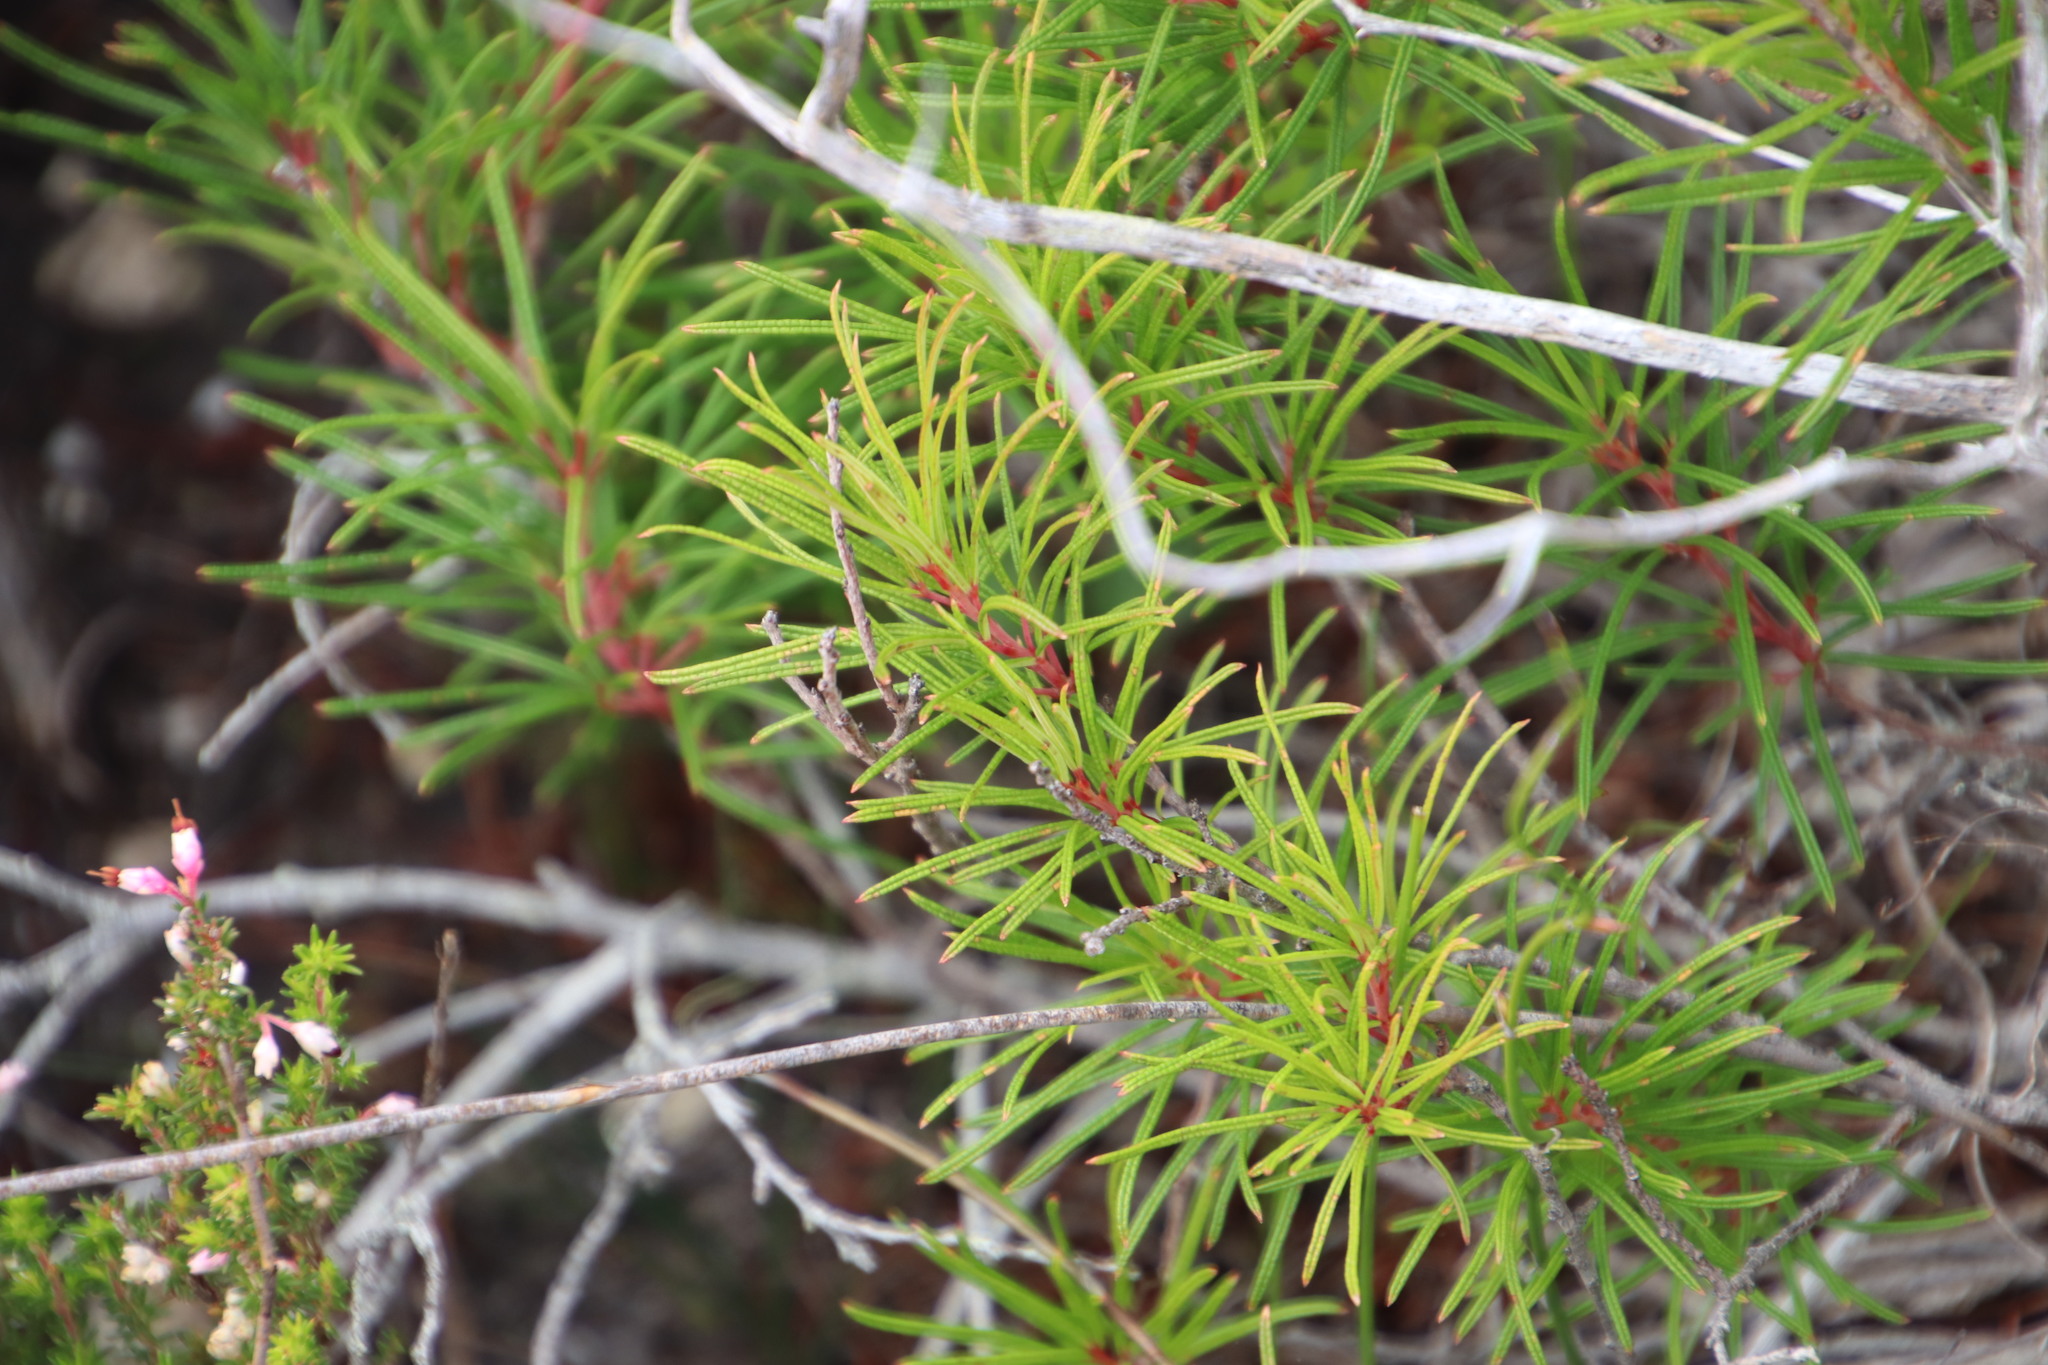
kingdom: Plantae
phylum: Tracheophyta
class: Magnoliopsida
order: Sapindales
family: Anacardiaceae
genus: Searsia
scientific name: Searsia rosmarinifolia
